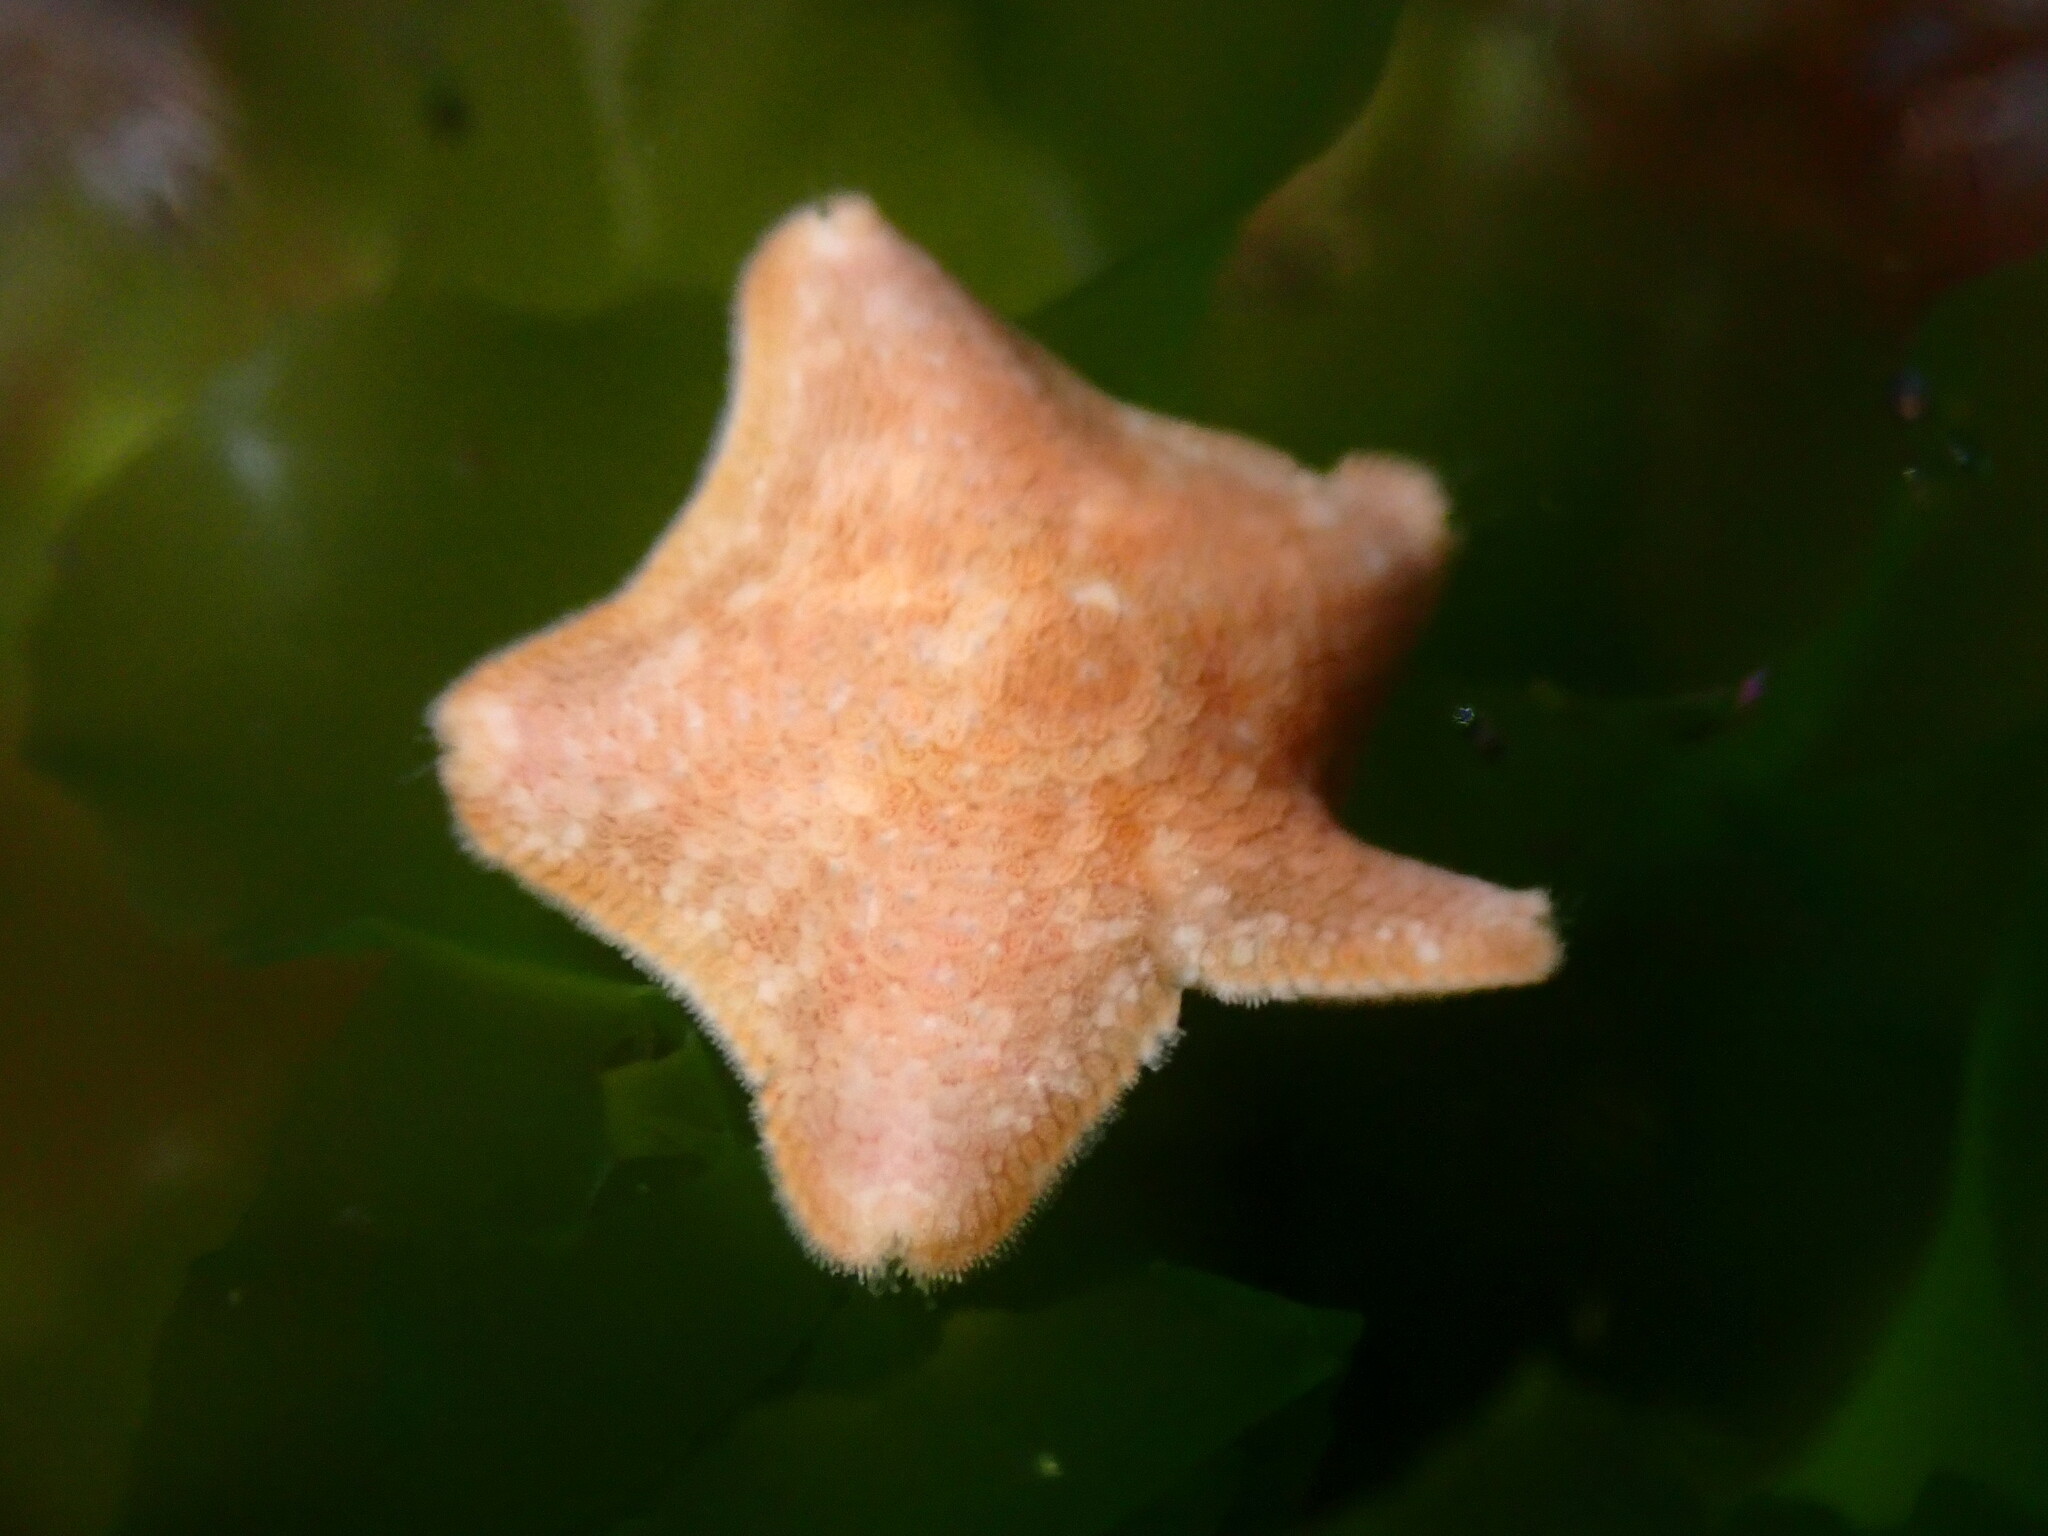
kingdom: Animalia
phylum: Echinodermata
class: Asteroidea
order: Valvatida
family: Asterinidae
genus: Patiria
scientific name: Patiria miniata
